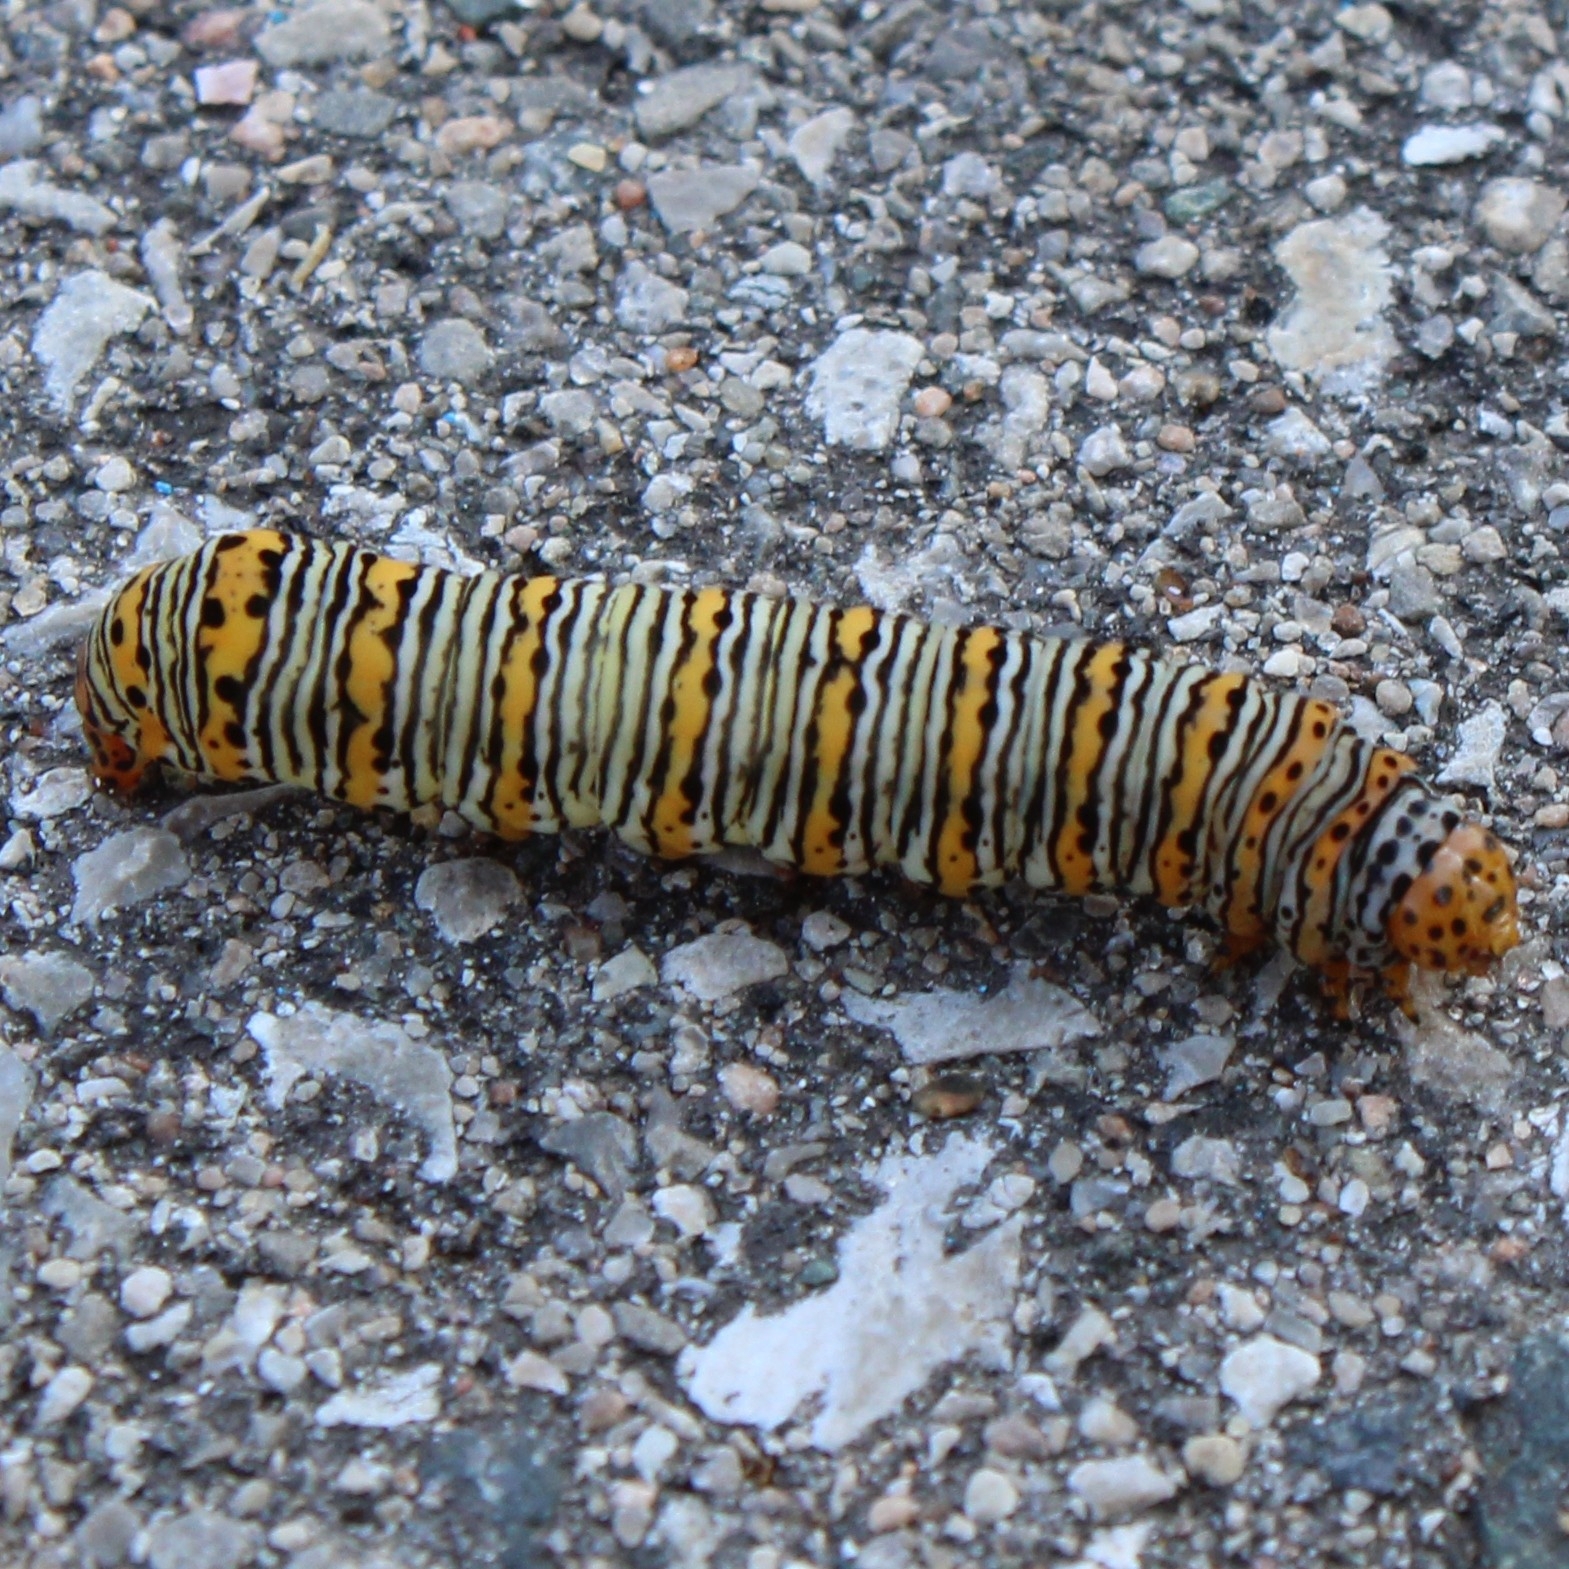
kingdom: Animalia
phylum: Arthropoda
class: Insecta
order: Lepidoptera
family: Noctuidae
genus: Eudryas
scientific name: Eudryas unio
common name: Pearly wood-nymph
